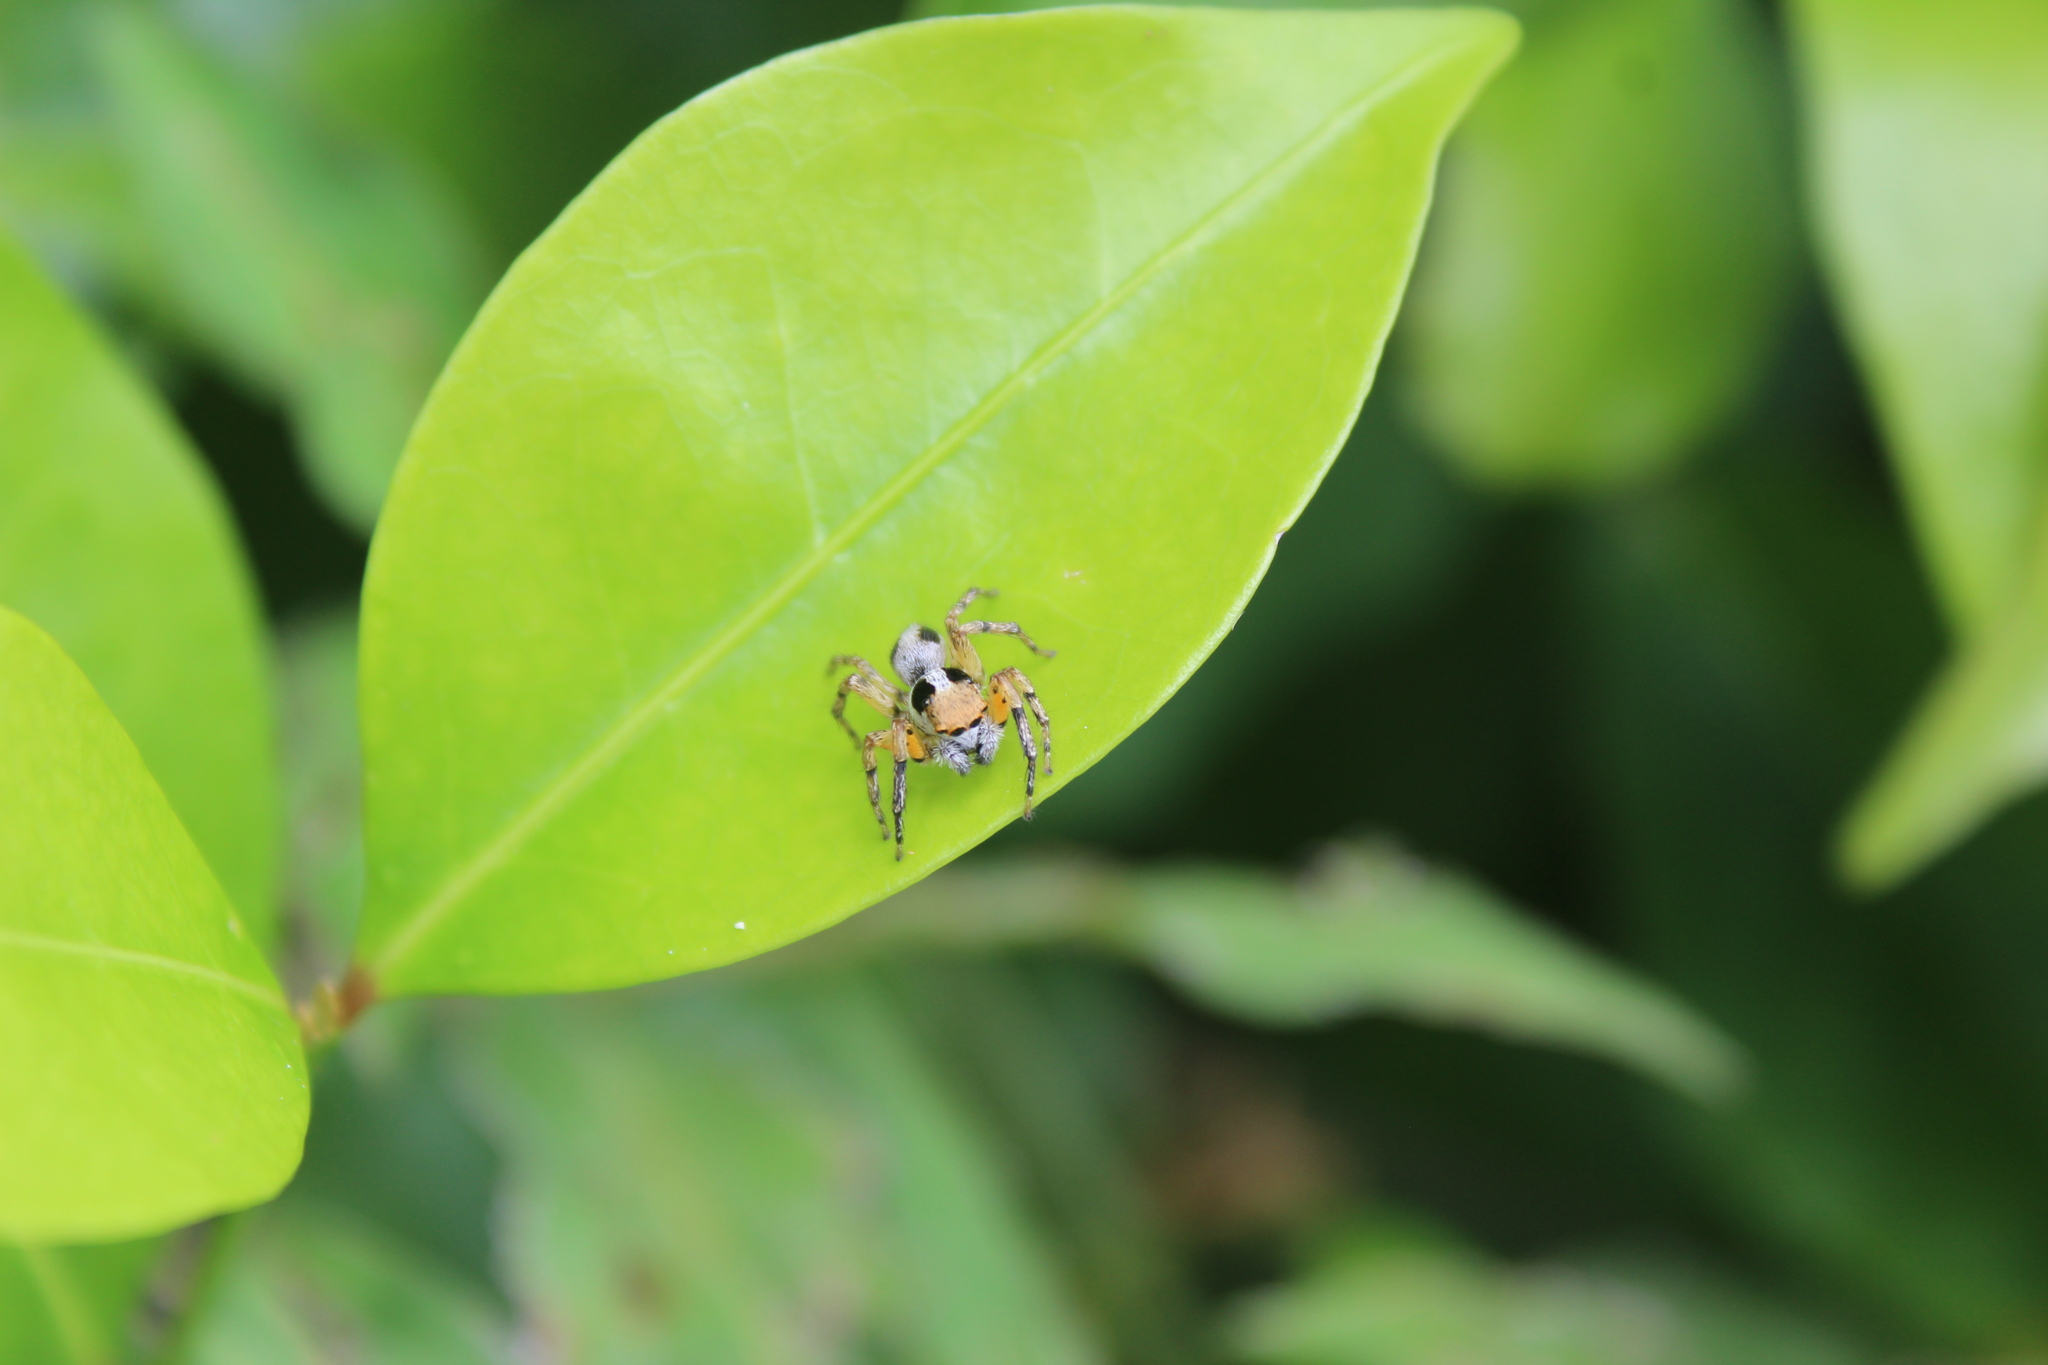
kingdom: Animalia
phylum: Arthropoda
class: Arachnida
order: Araneae
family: Salticidae
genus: Tarkas
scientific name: Tarkas maculatipes
